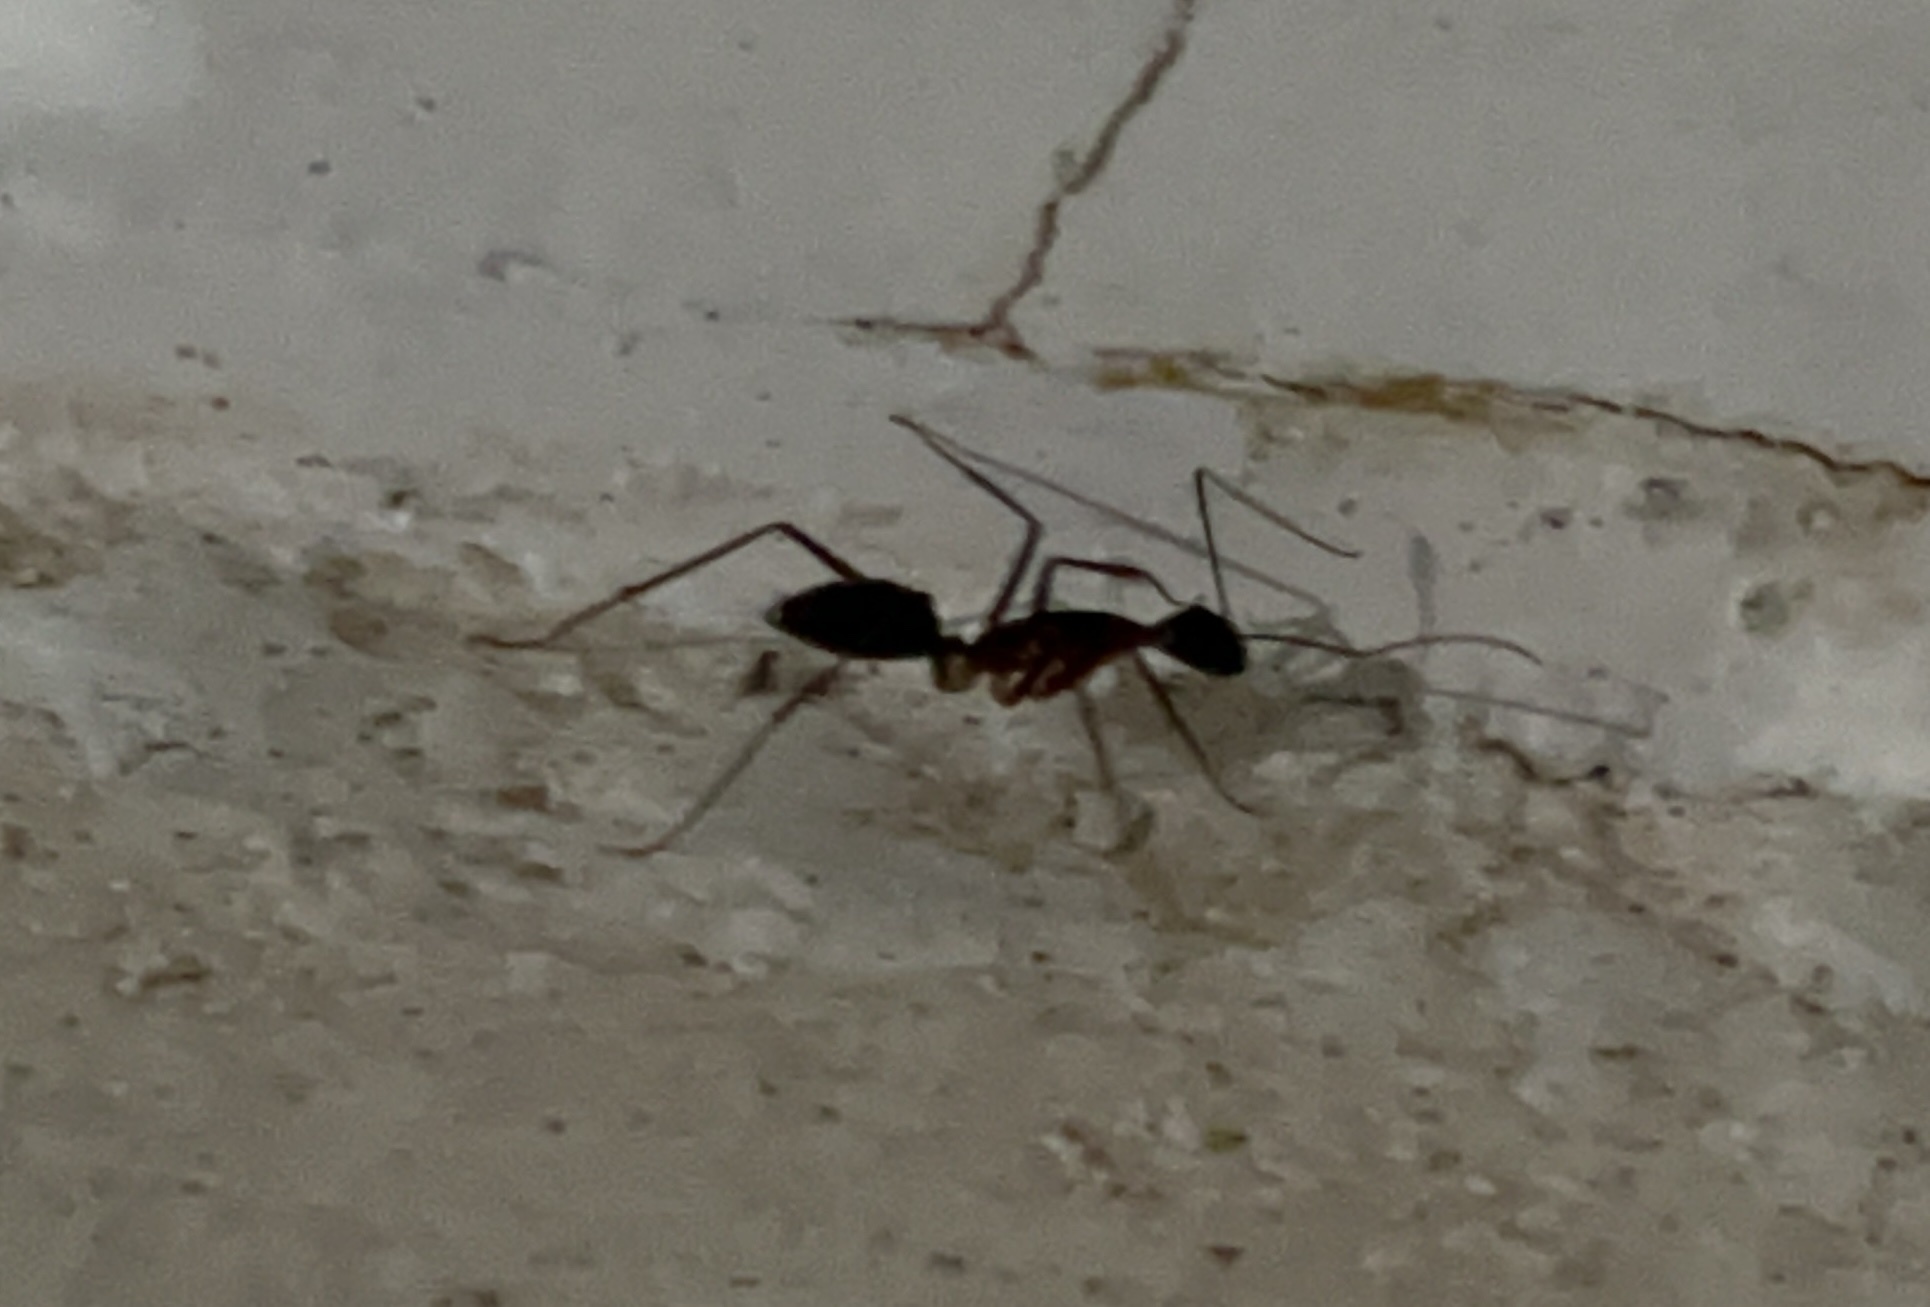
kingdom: Animalia
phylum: Arthropoda
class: Insecta
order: Hymenoptera
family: Formicidae
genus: Camponotus
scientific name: Camponotus etiolipes
